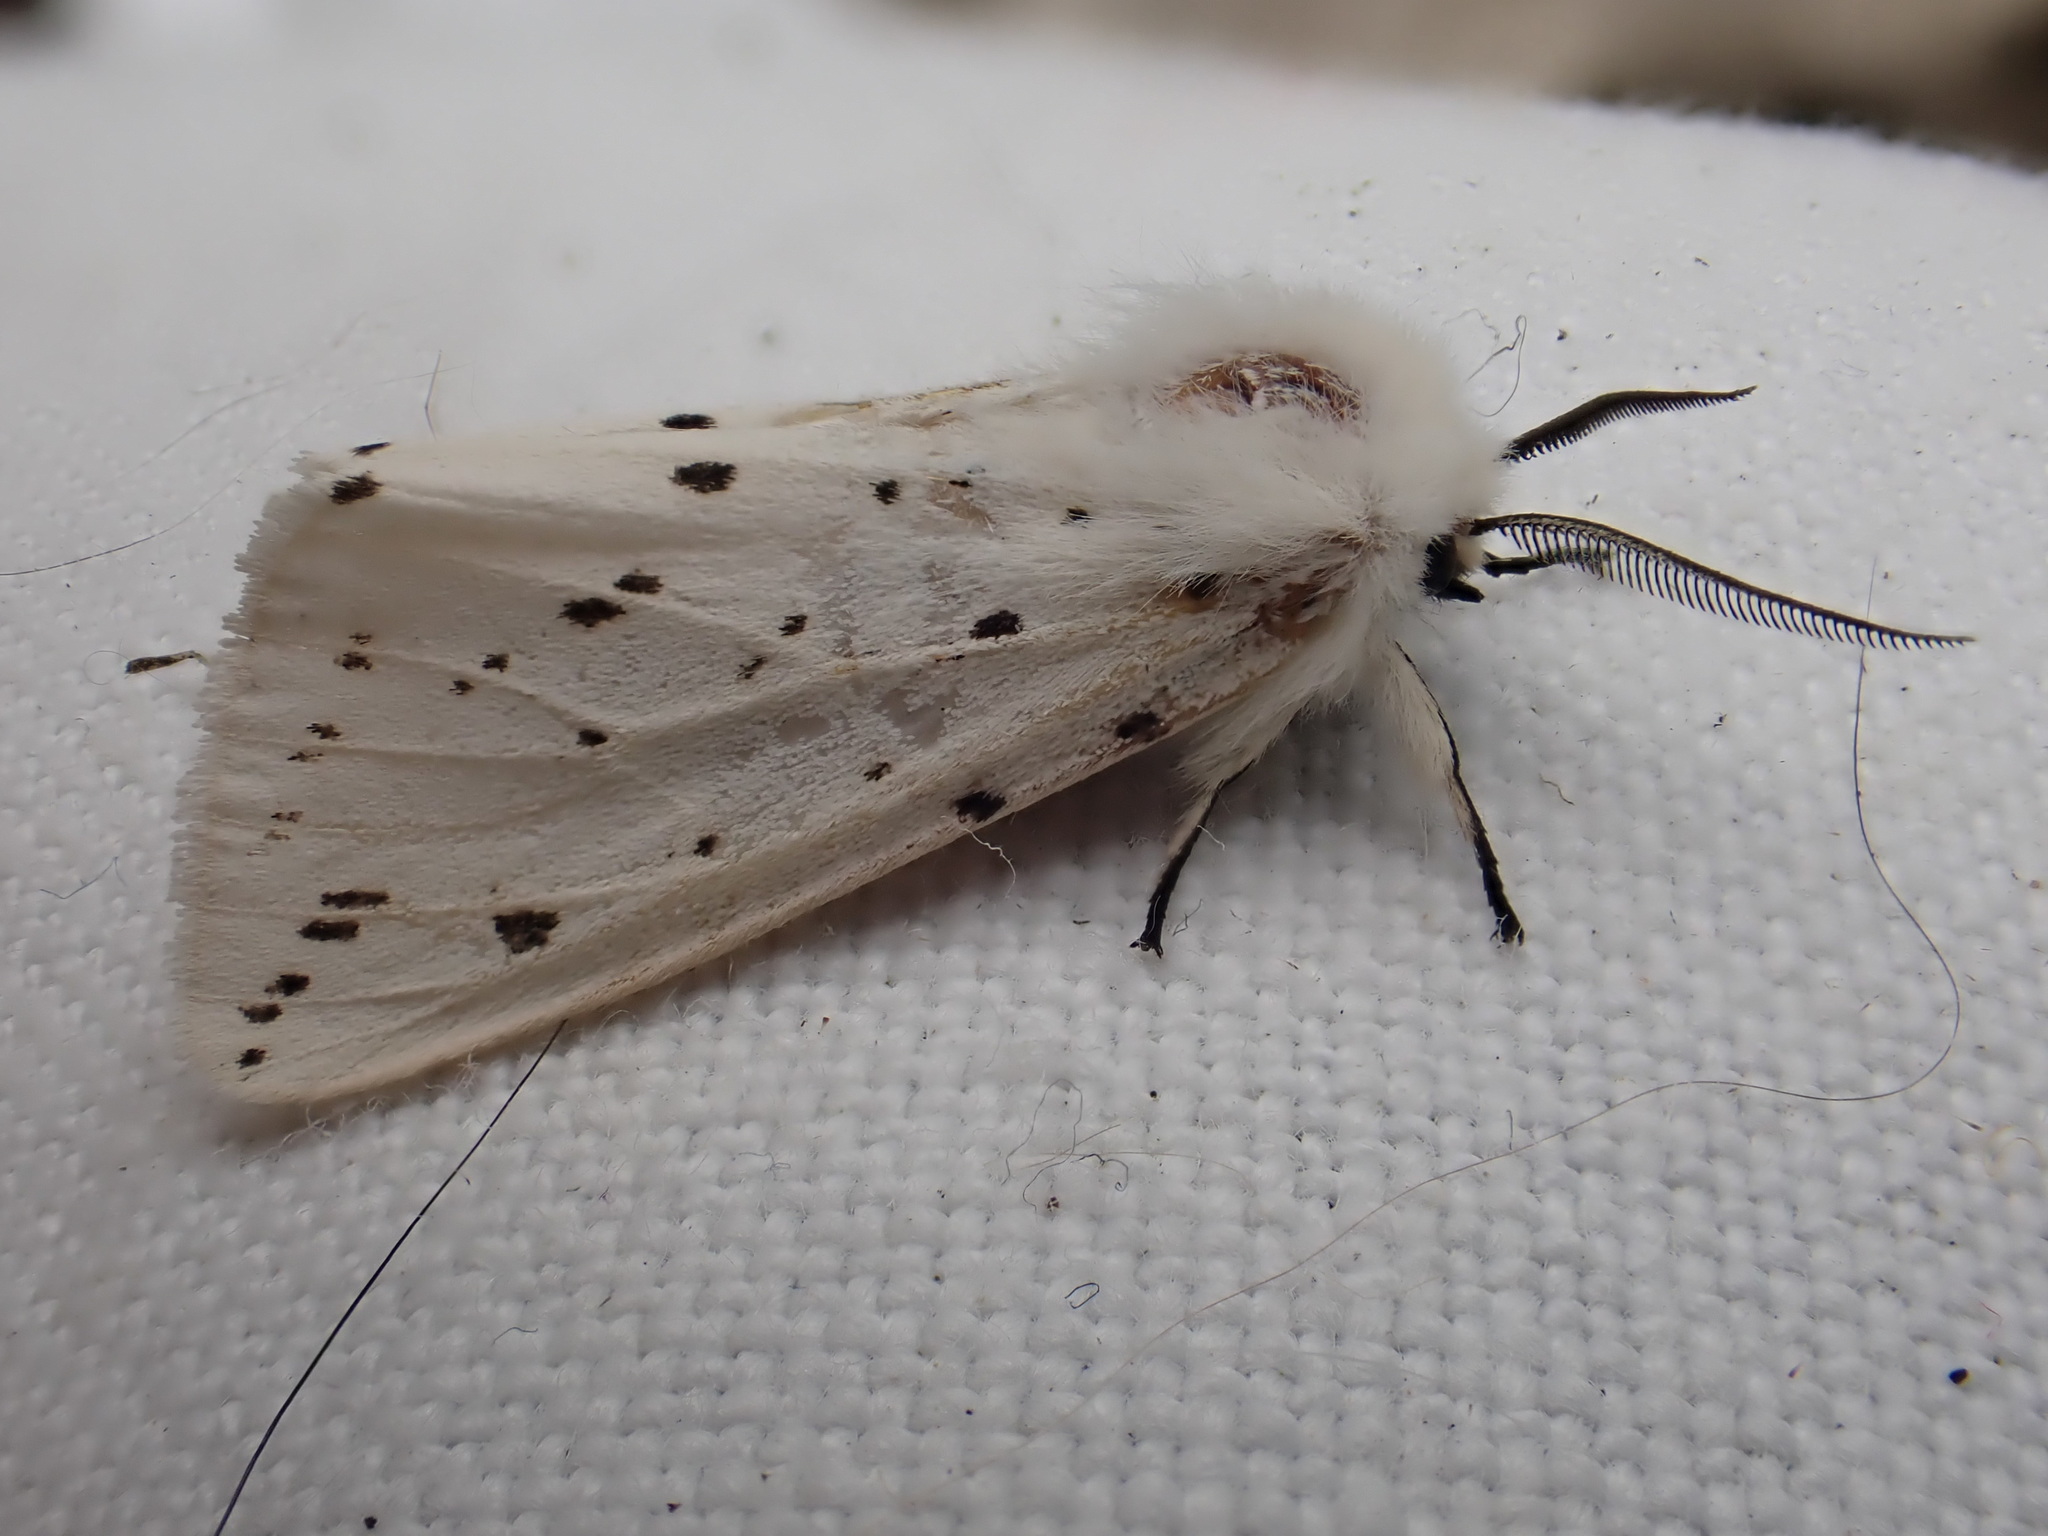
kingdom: Animalia
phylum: Arthropoda
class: Insecta
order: Lepidoptera
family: Erebidae
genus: Spilosoma
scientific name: Spilosoma lubricipeda
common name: White ermine
